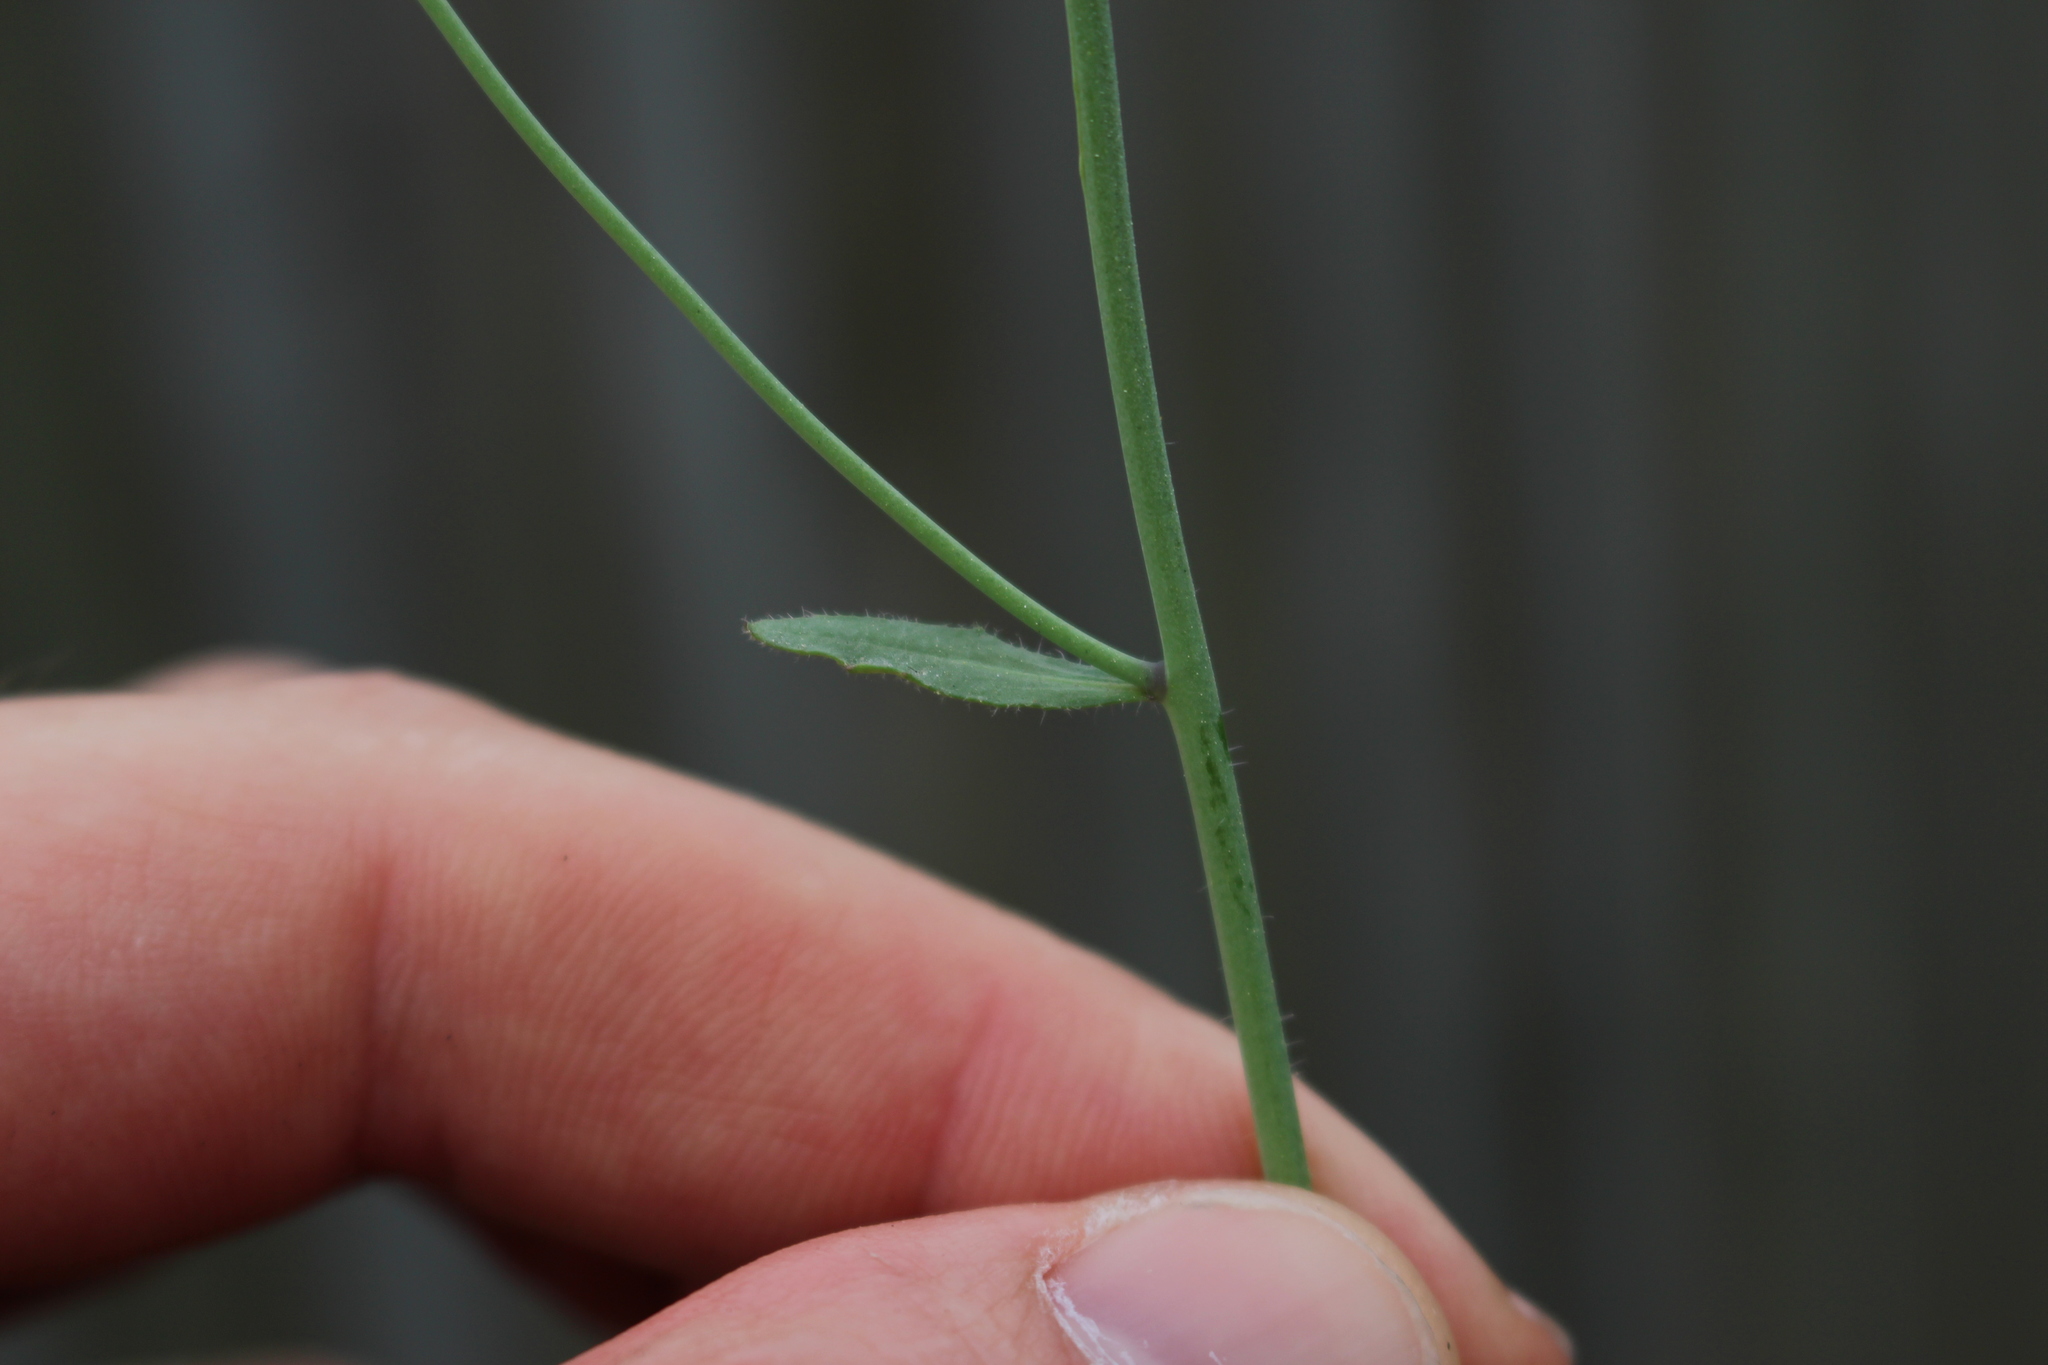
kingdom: Plantae
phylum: Tracheophyta
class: Magnoliopsida
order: Brassicales
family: Brassicaceae
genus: Arabidopsis
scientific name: Arabidopsis thaliana
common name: Thale cress
